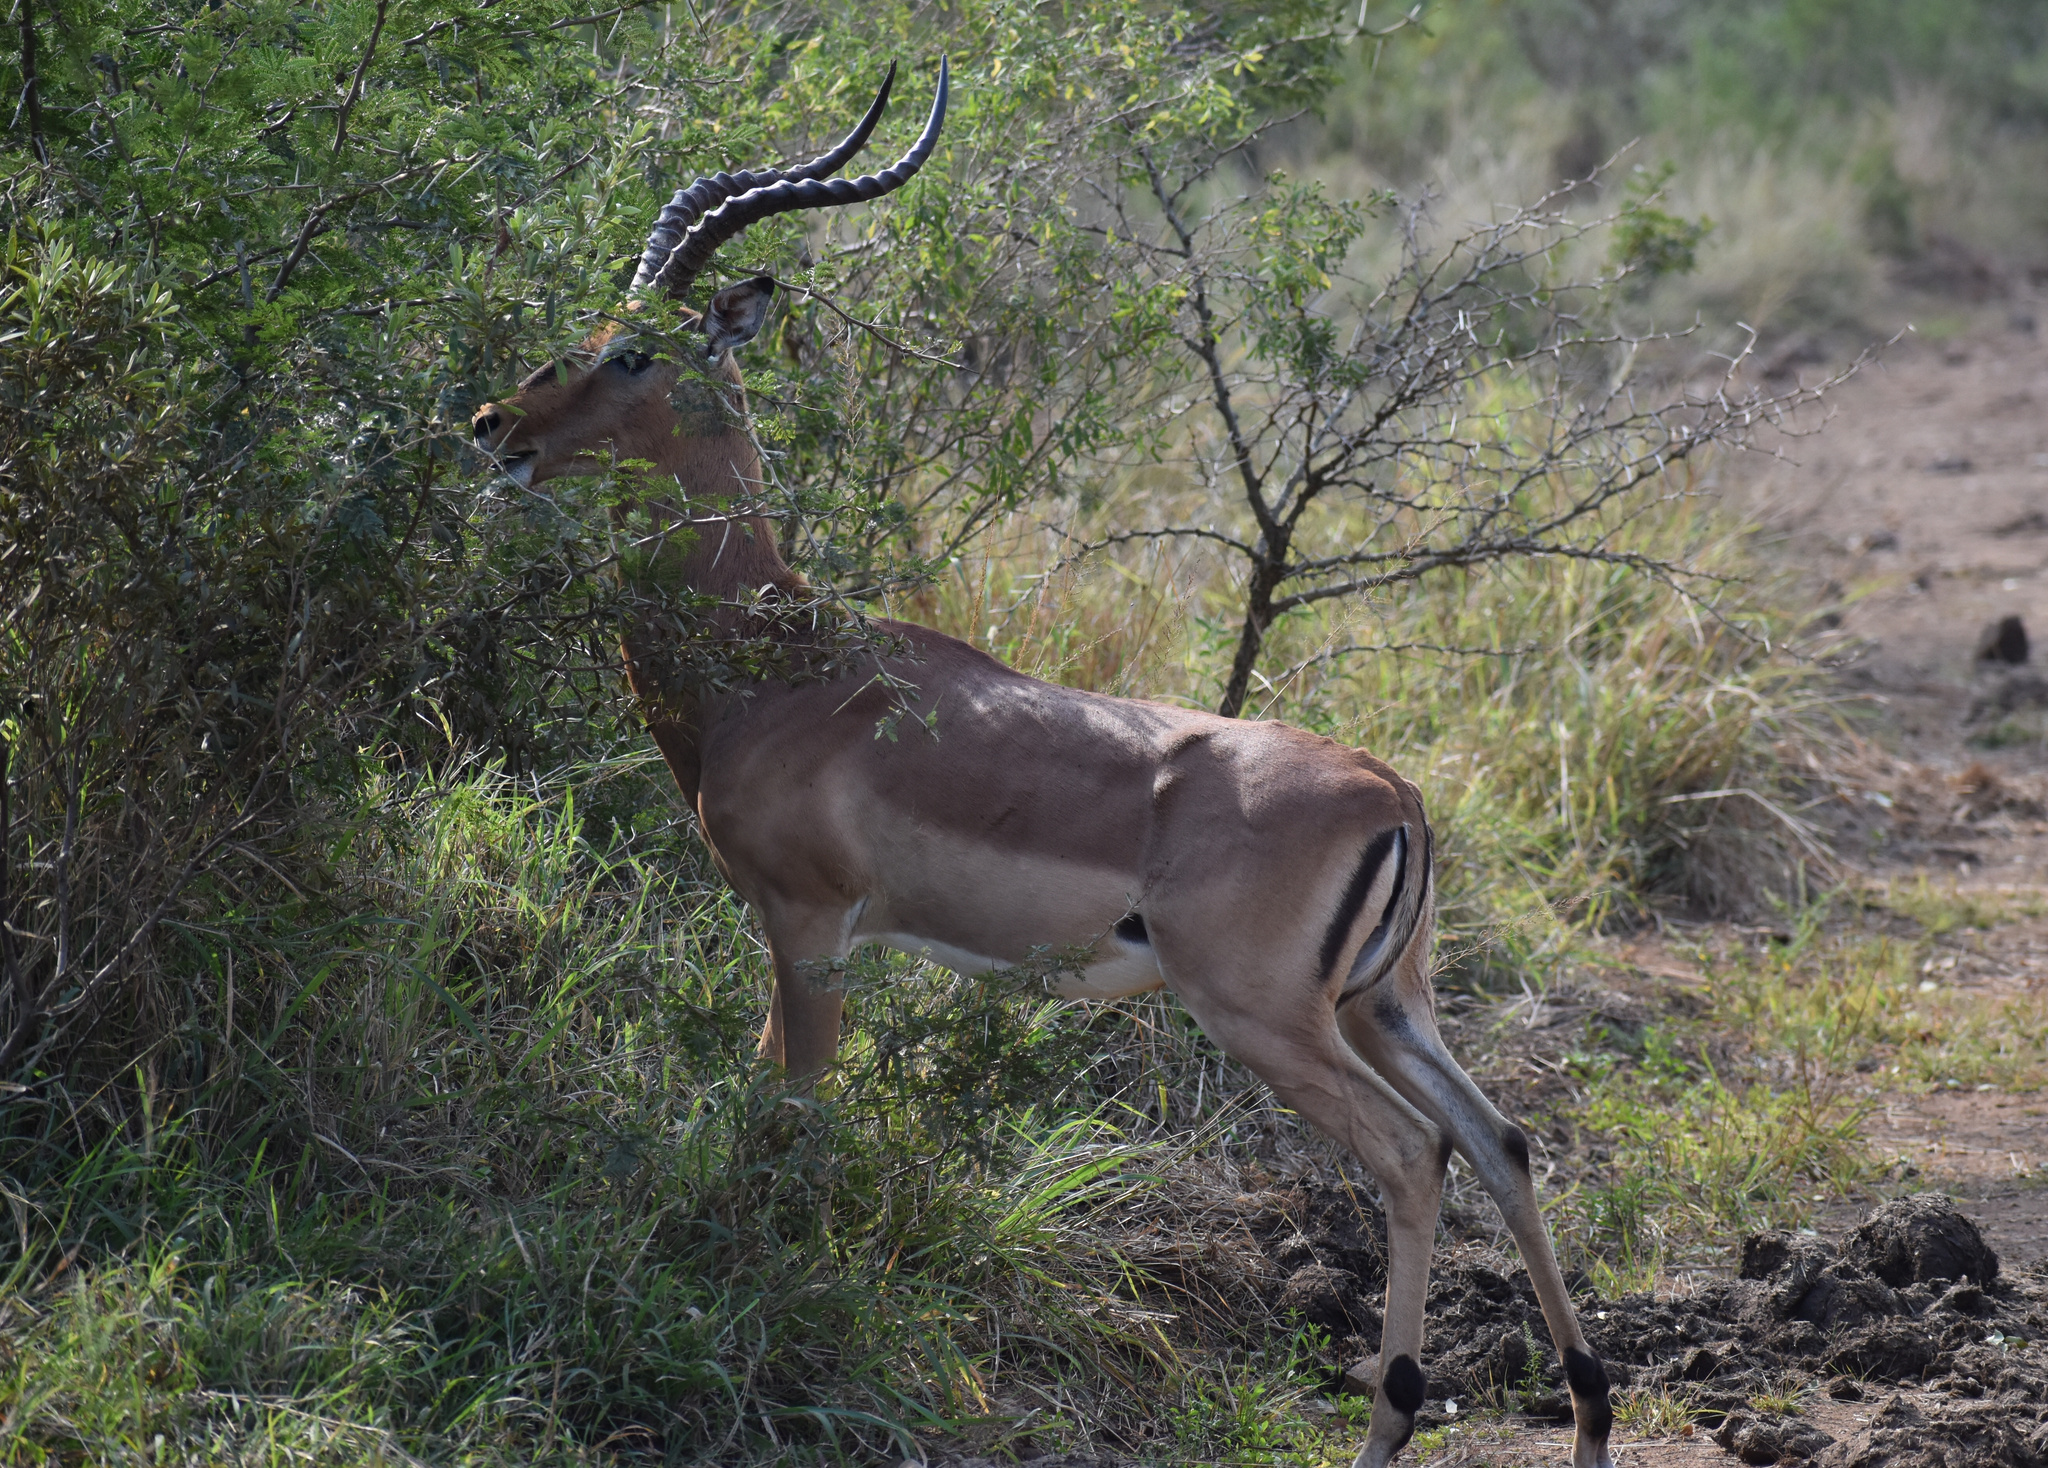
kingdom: Animalia
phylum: Chordata
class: Mammalia
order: Artiodactyla
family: Bovidae
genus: Aepyceros
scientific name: Aepyceros melampus
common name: Impala
